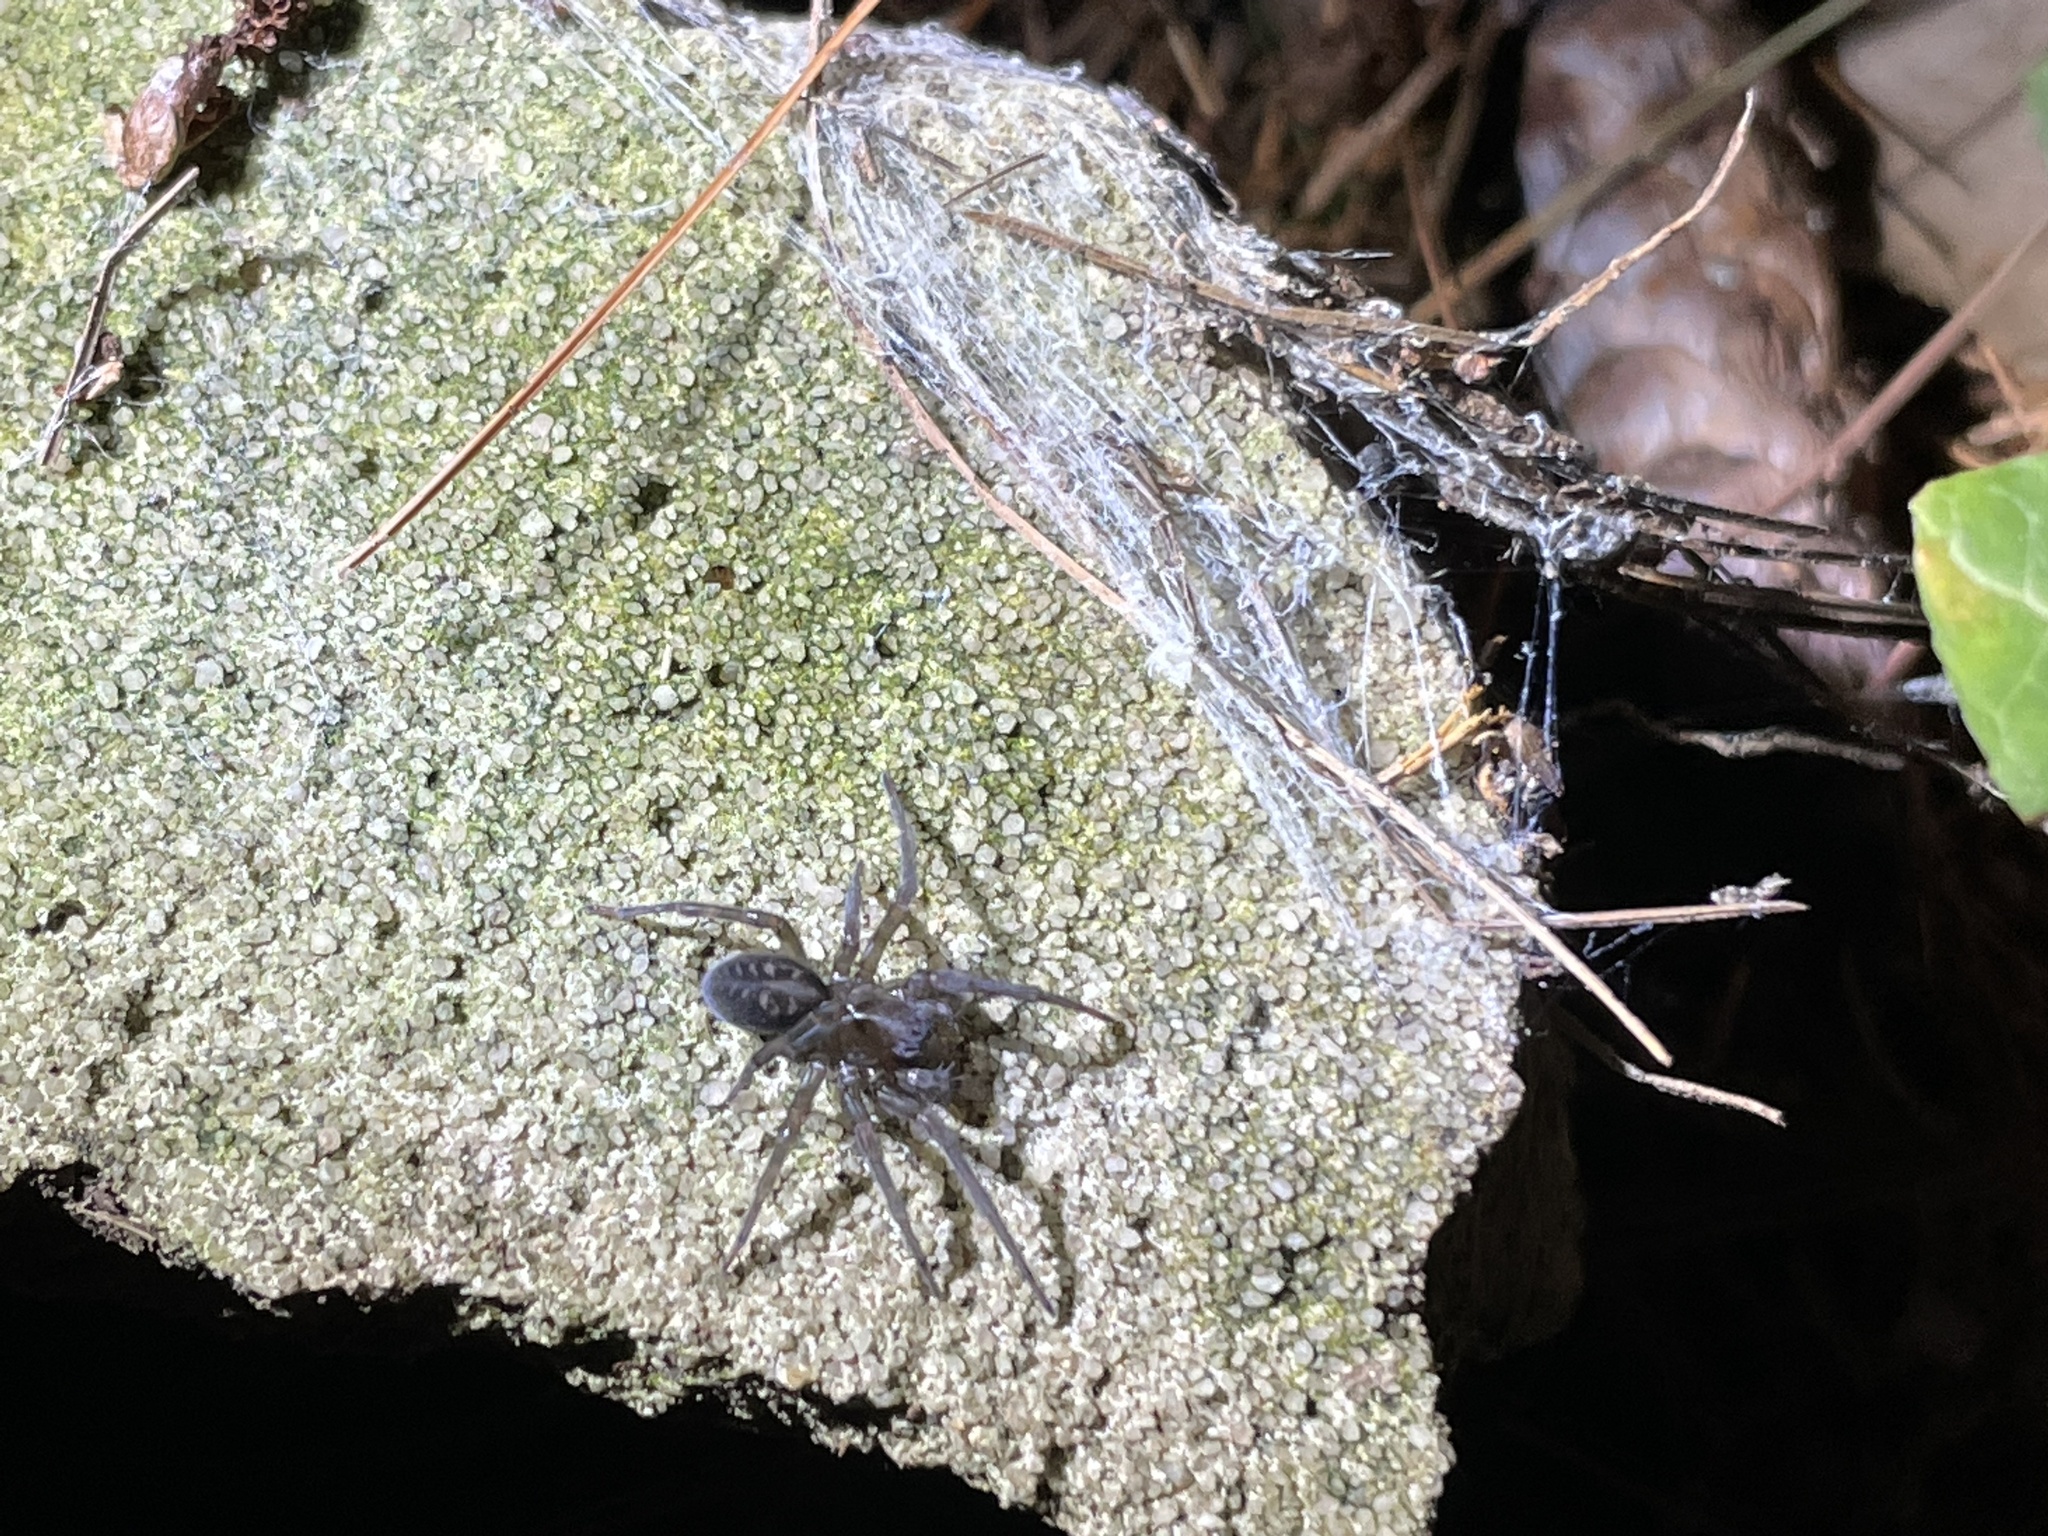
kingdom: Animalia
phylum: Arthropoda
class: Arachnida
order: Araneae
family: Amaurobiidae
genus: Amaurobius
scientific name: Amaurobius ferox
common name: Black laceweaver
